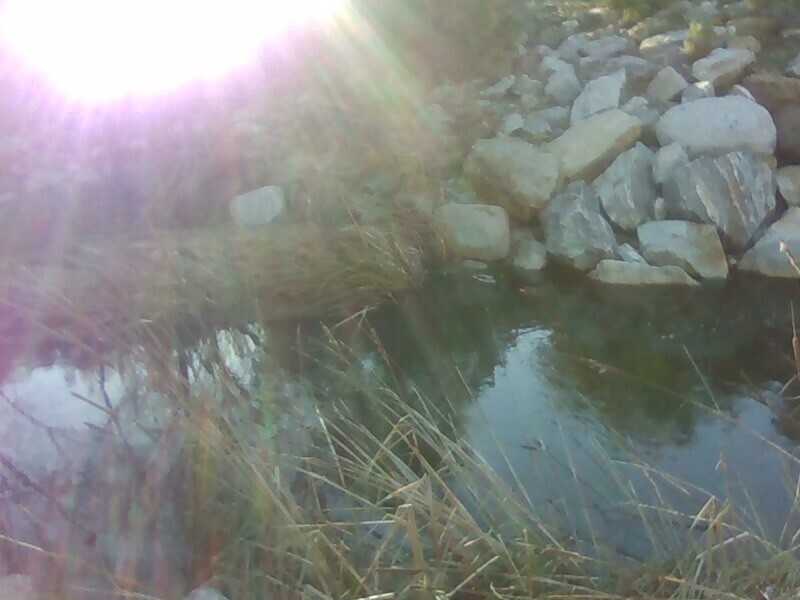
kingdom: Animalia
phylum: Chordata
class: Aves
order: Anseriformes
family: Anatidae
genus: Anas
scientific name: Anas platyrhynchos
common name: Mallard
